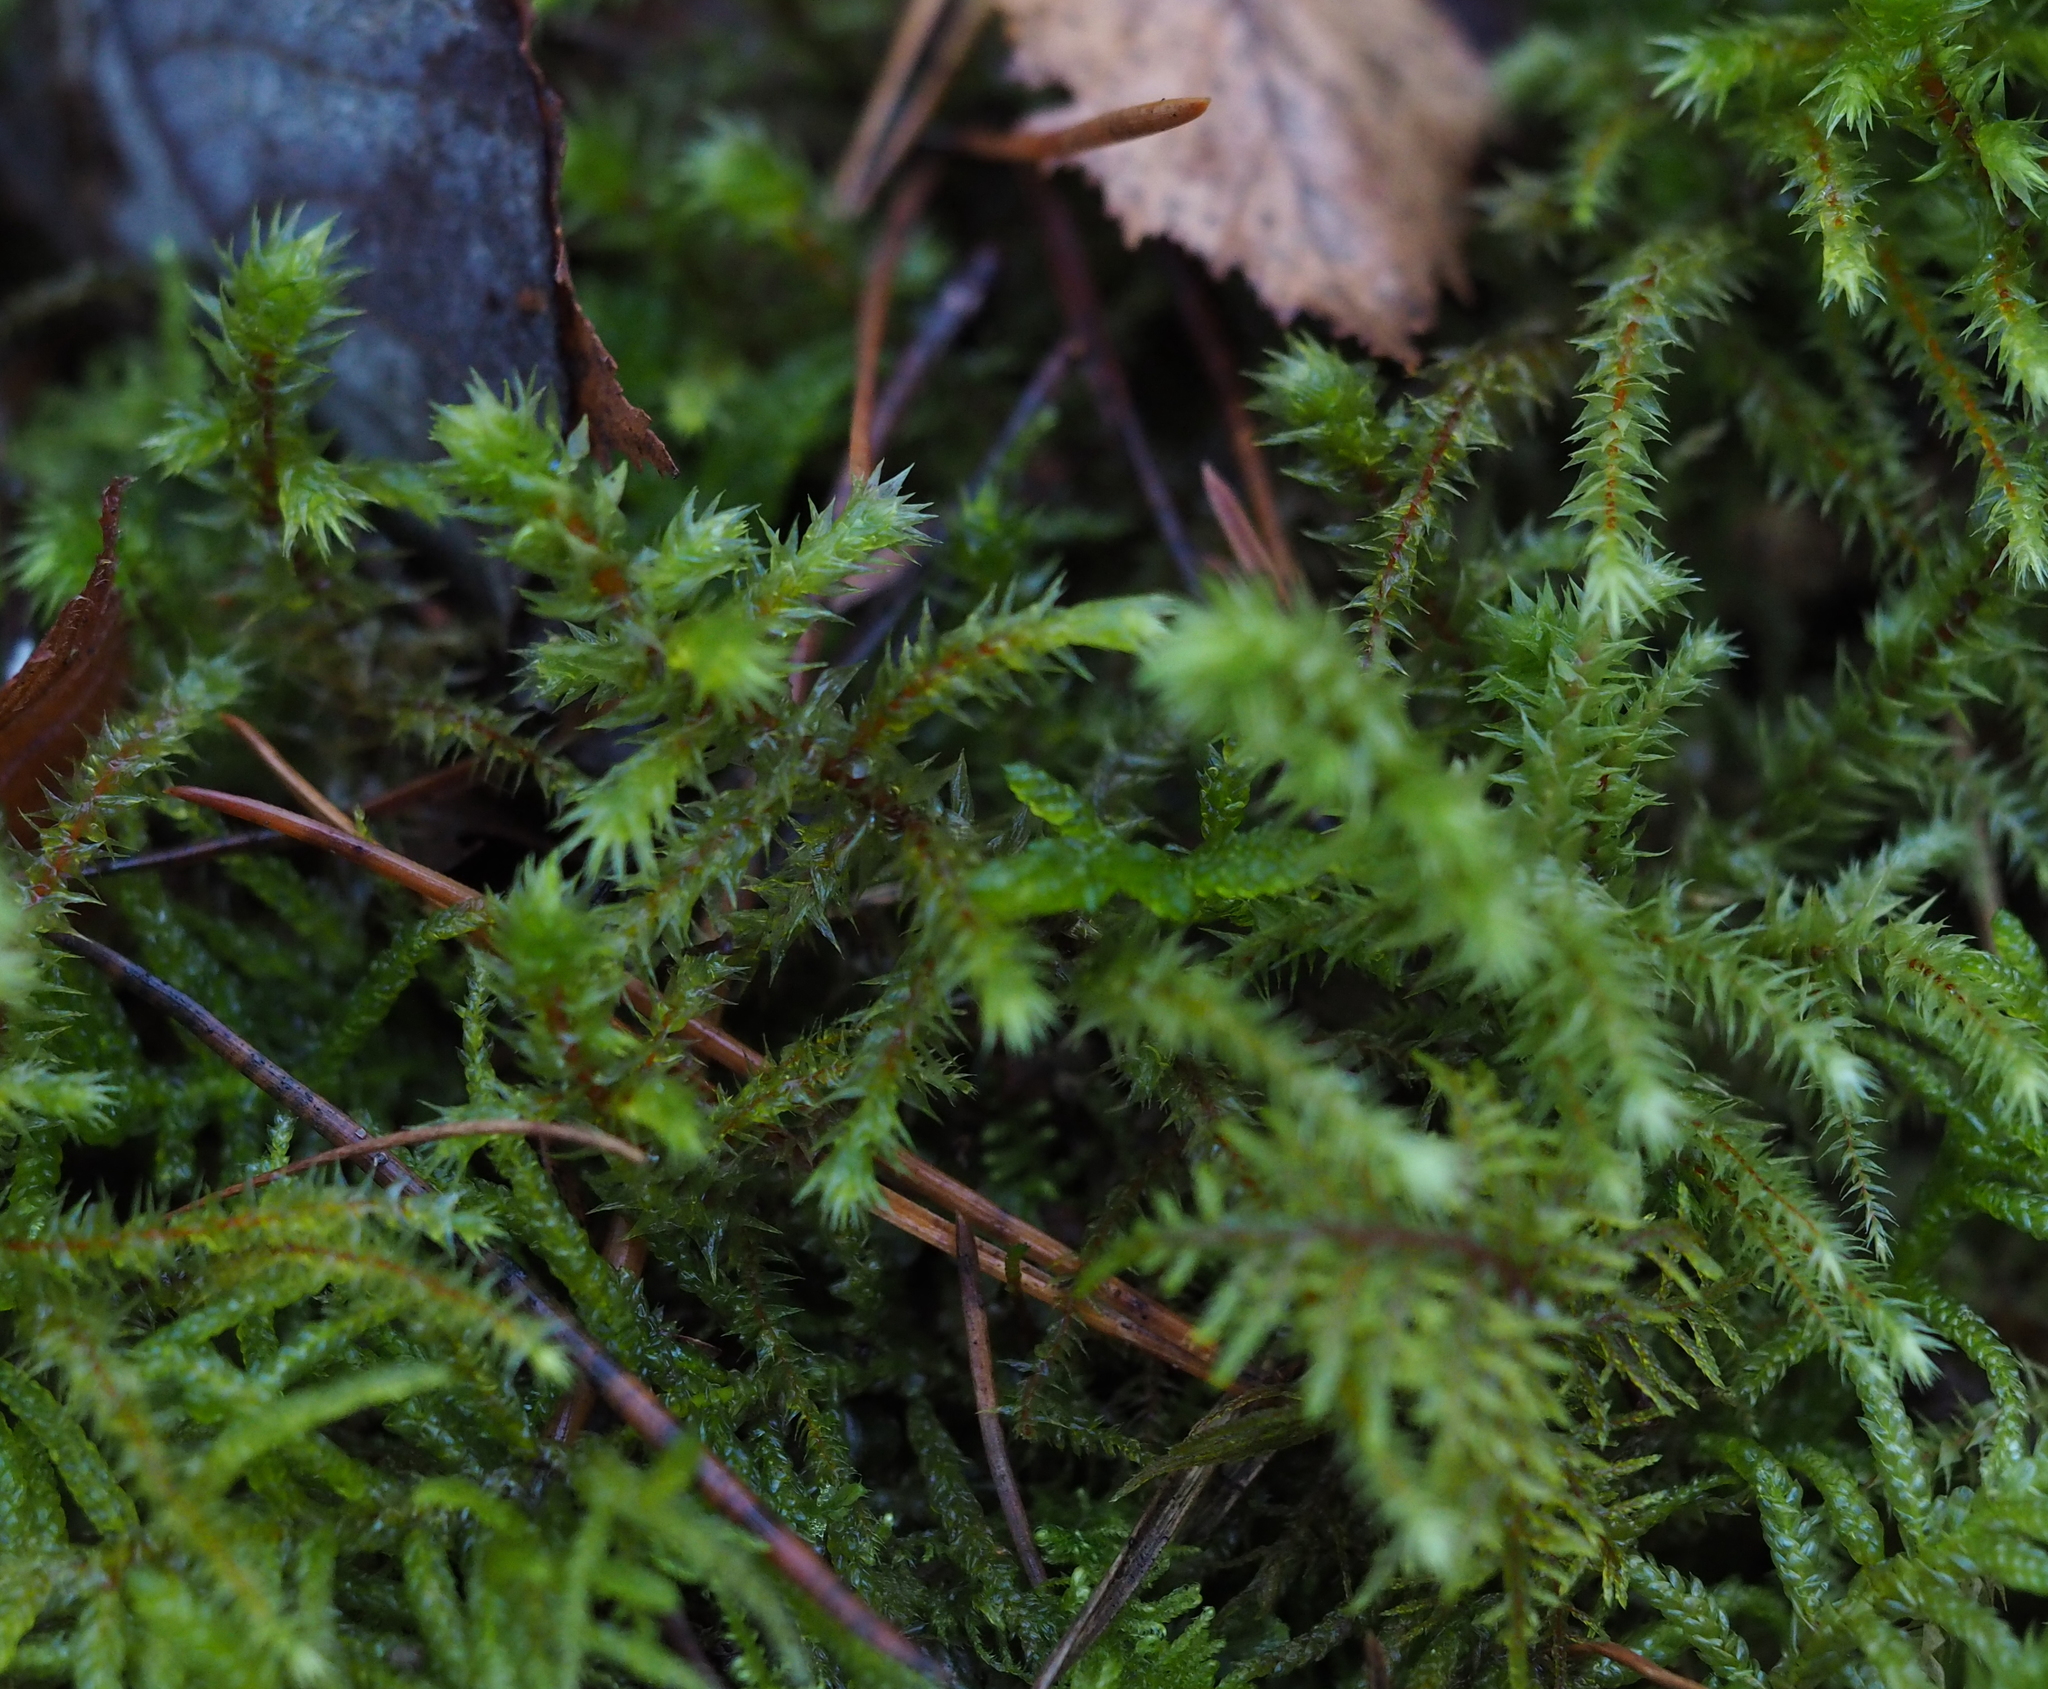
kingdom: Plantae
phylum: Bryophyta
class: Bryopsida
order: Hypnales
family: Hylocomiaceae
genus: Hylocomiadelphus
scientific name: Hylocomiadelphus triquetrus
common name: Rough goose neck moss
